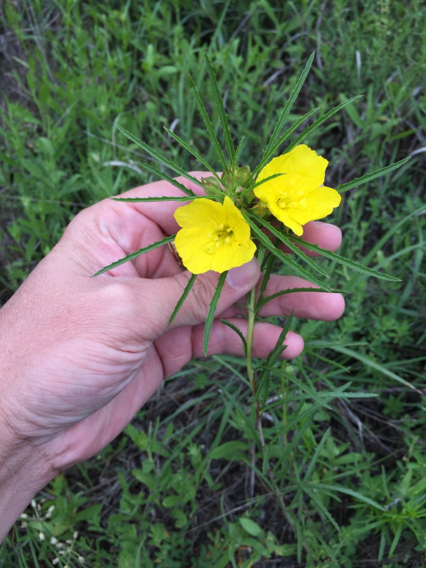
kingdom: Plantae
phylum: Tracheophyta
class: Magnoliopsida
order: Myrtales
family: Onagraceae
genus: Oenothera
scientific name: Oenothera
